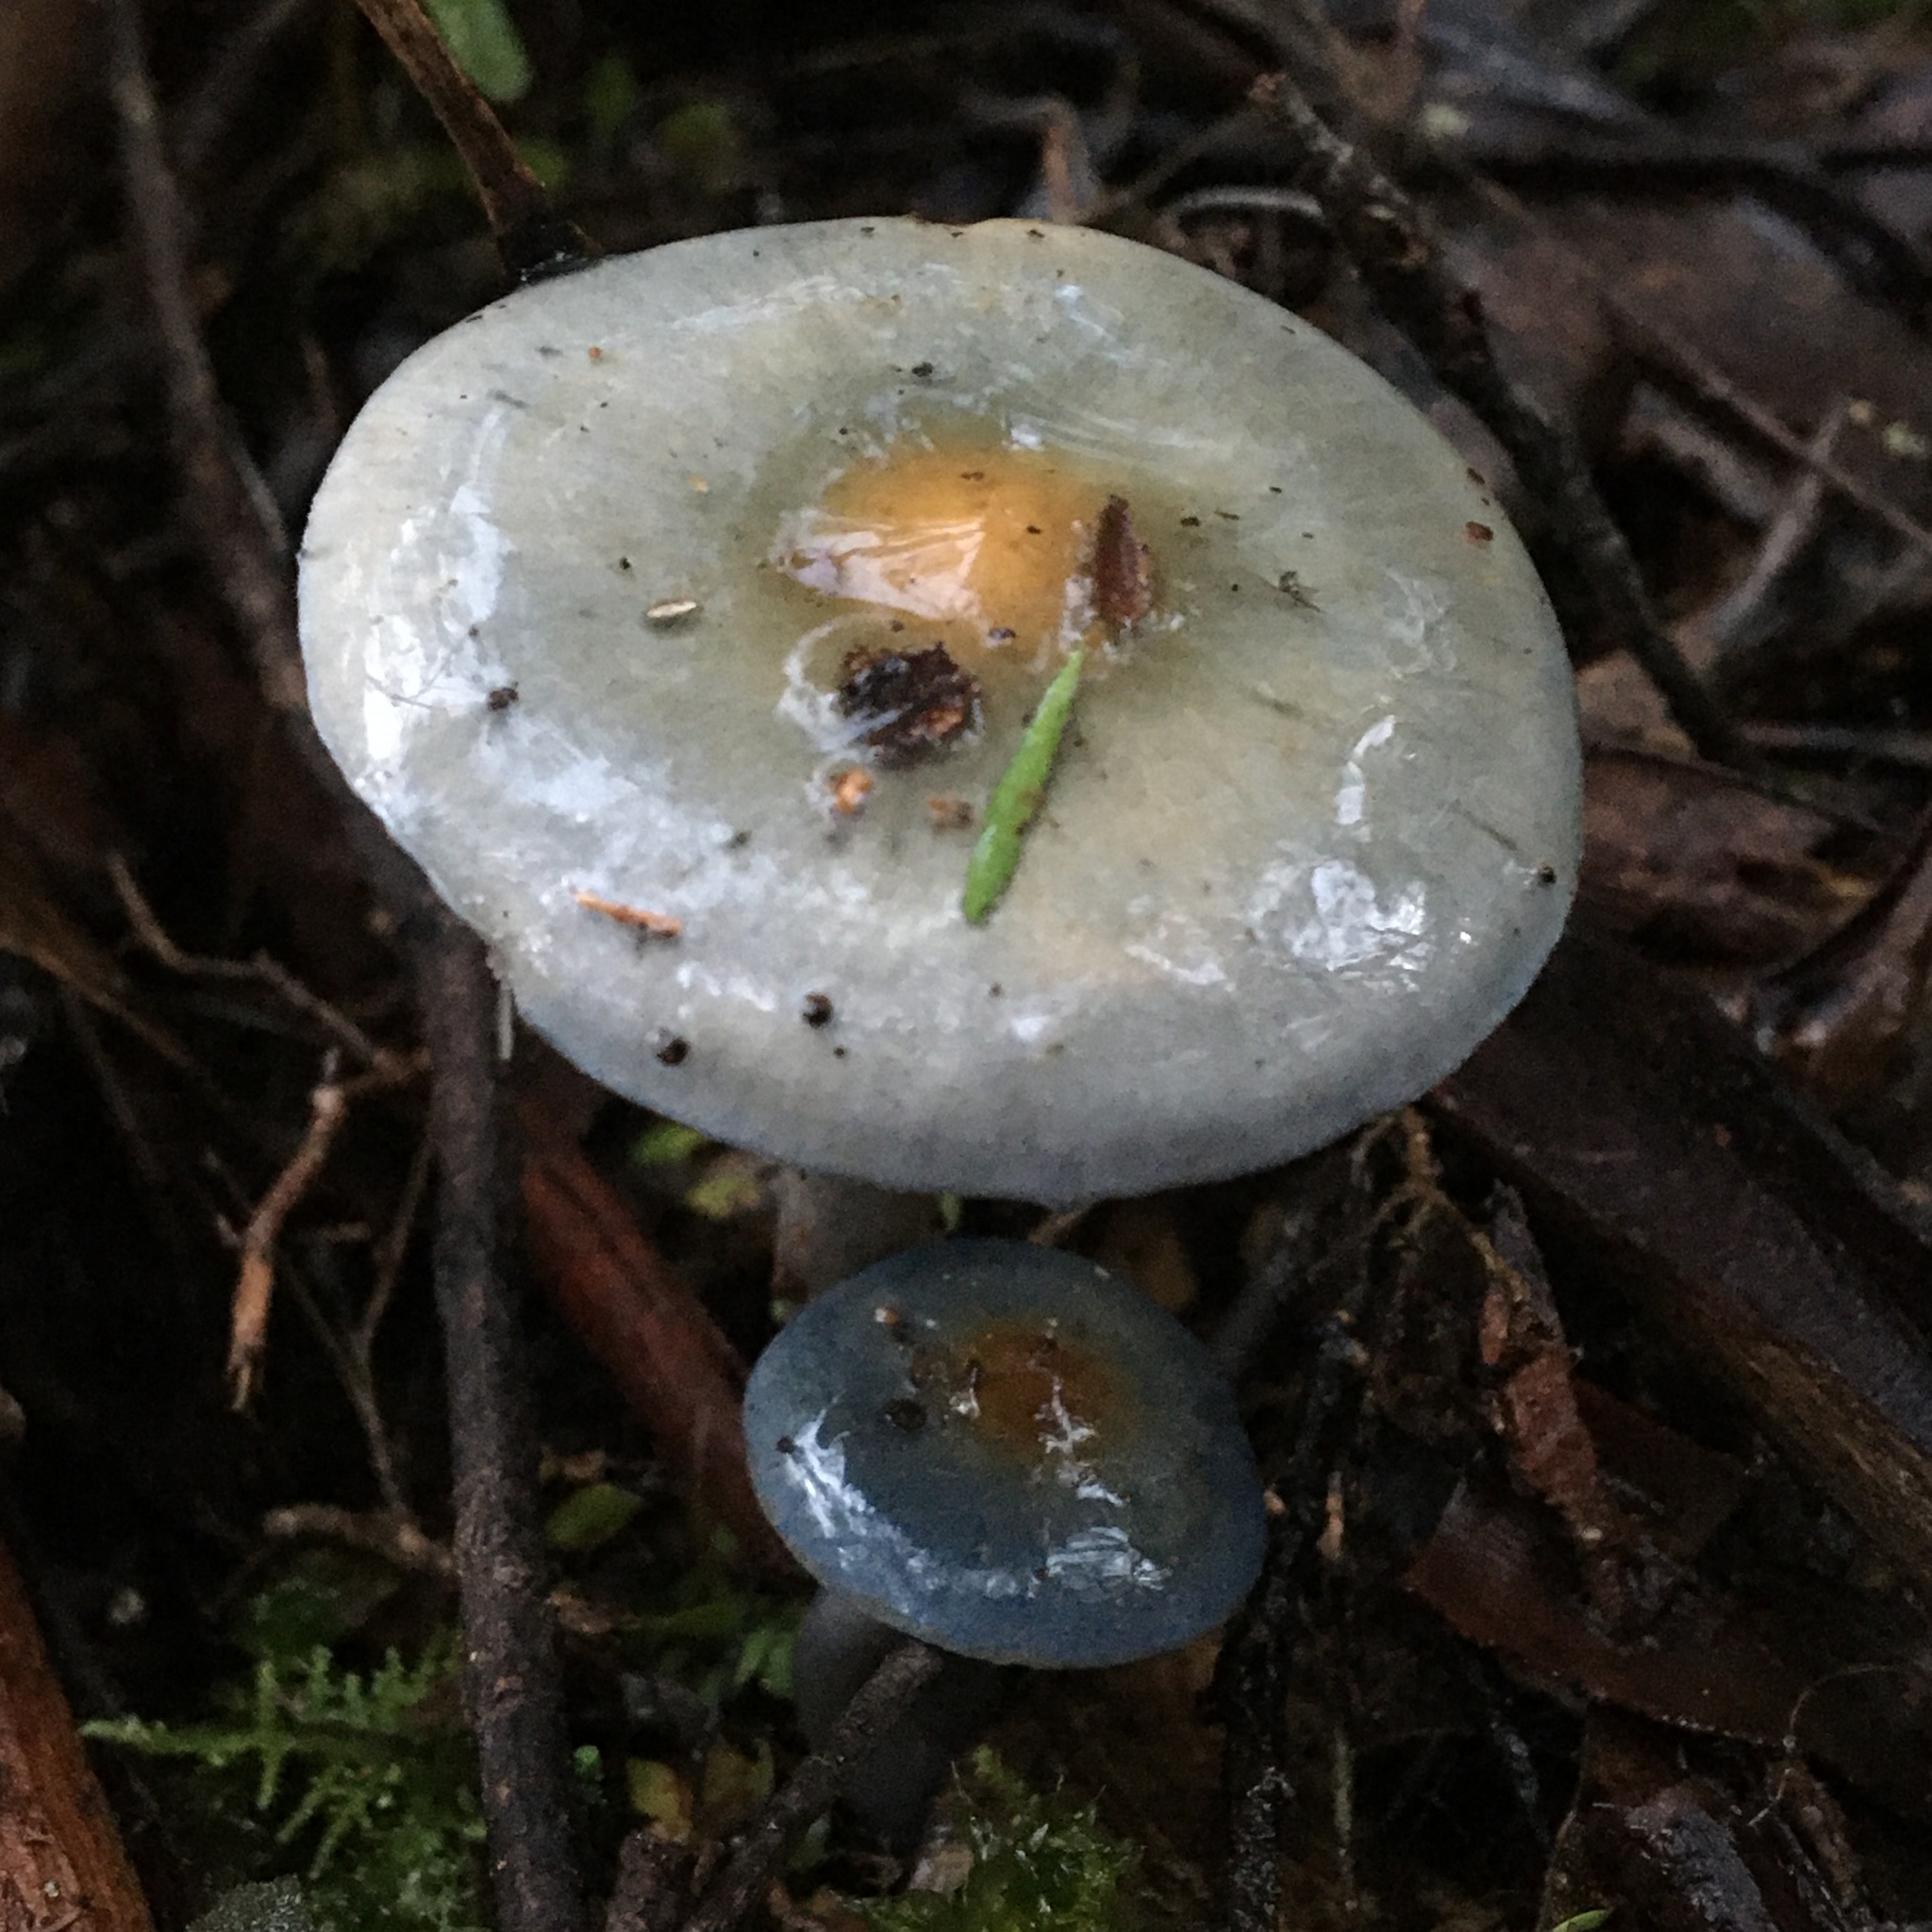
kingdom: Fungi
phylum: Basidiomycota
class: Agaricomycetes
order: Agaricales
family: Cortinariaceae
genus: Cortinarius
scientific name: Cortinarius rotundisporus
